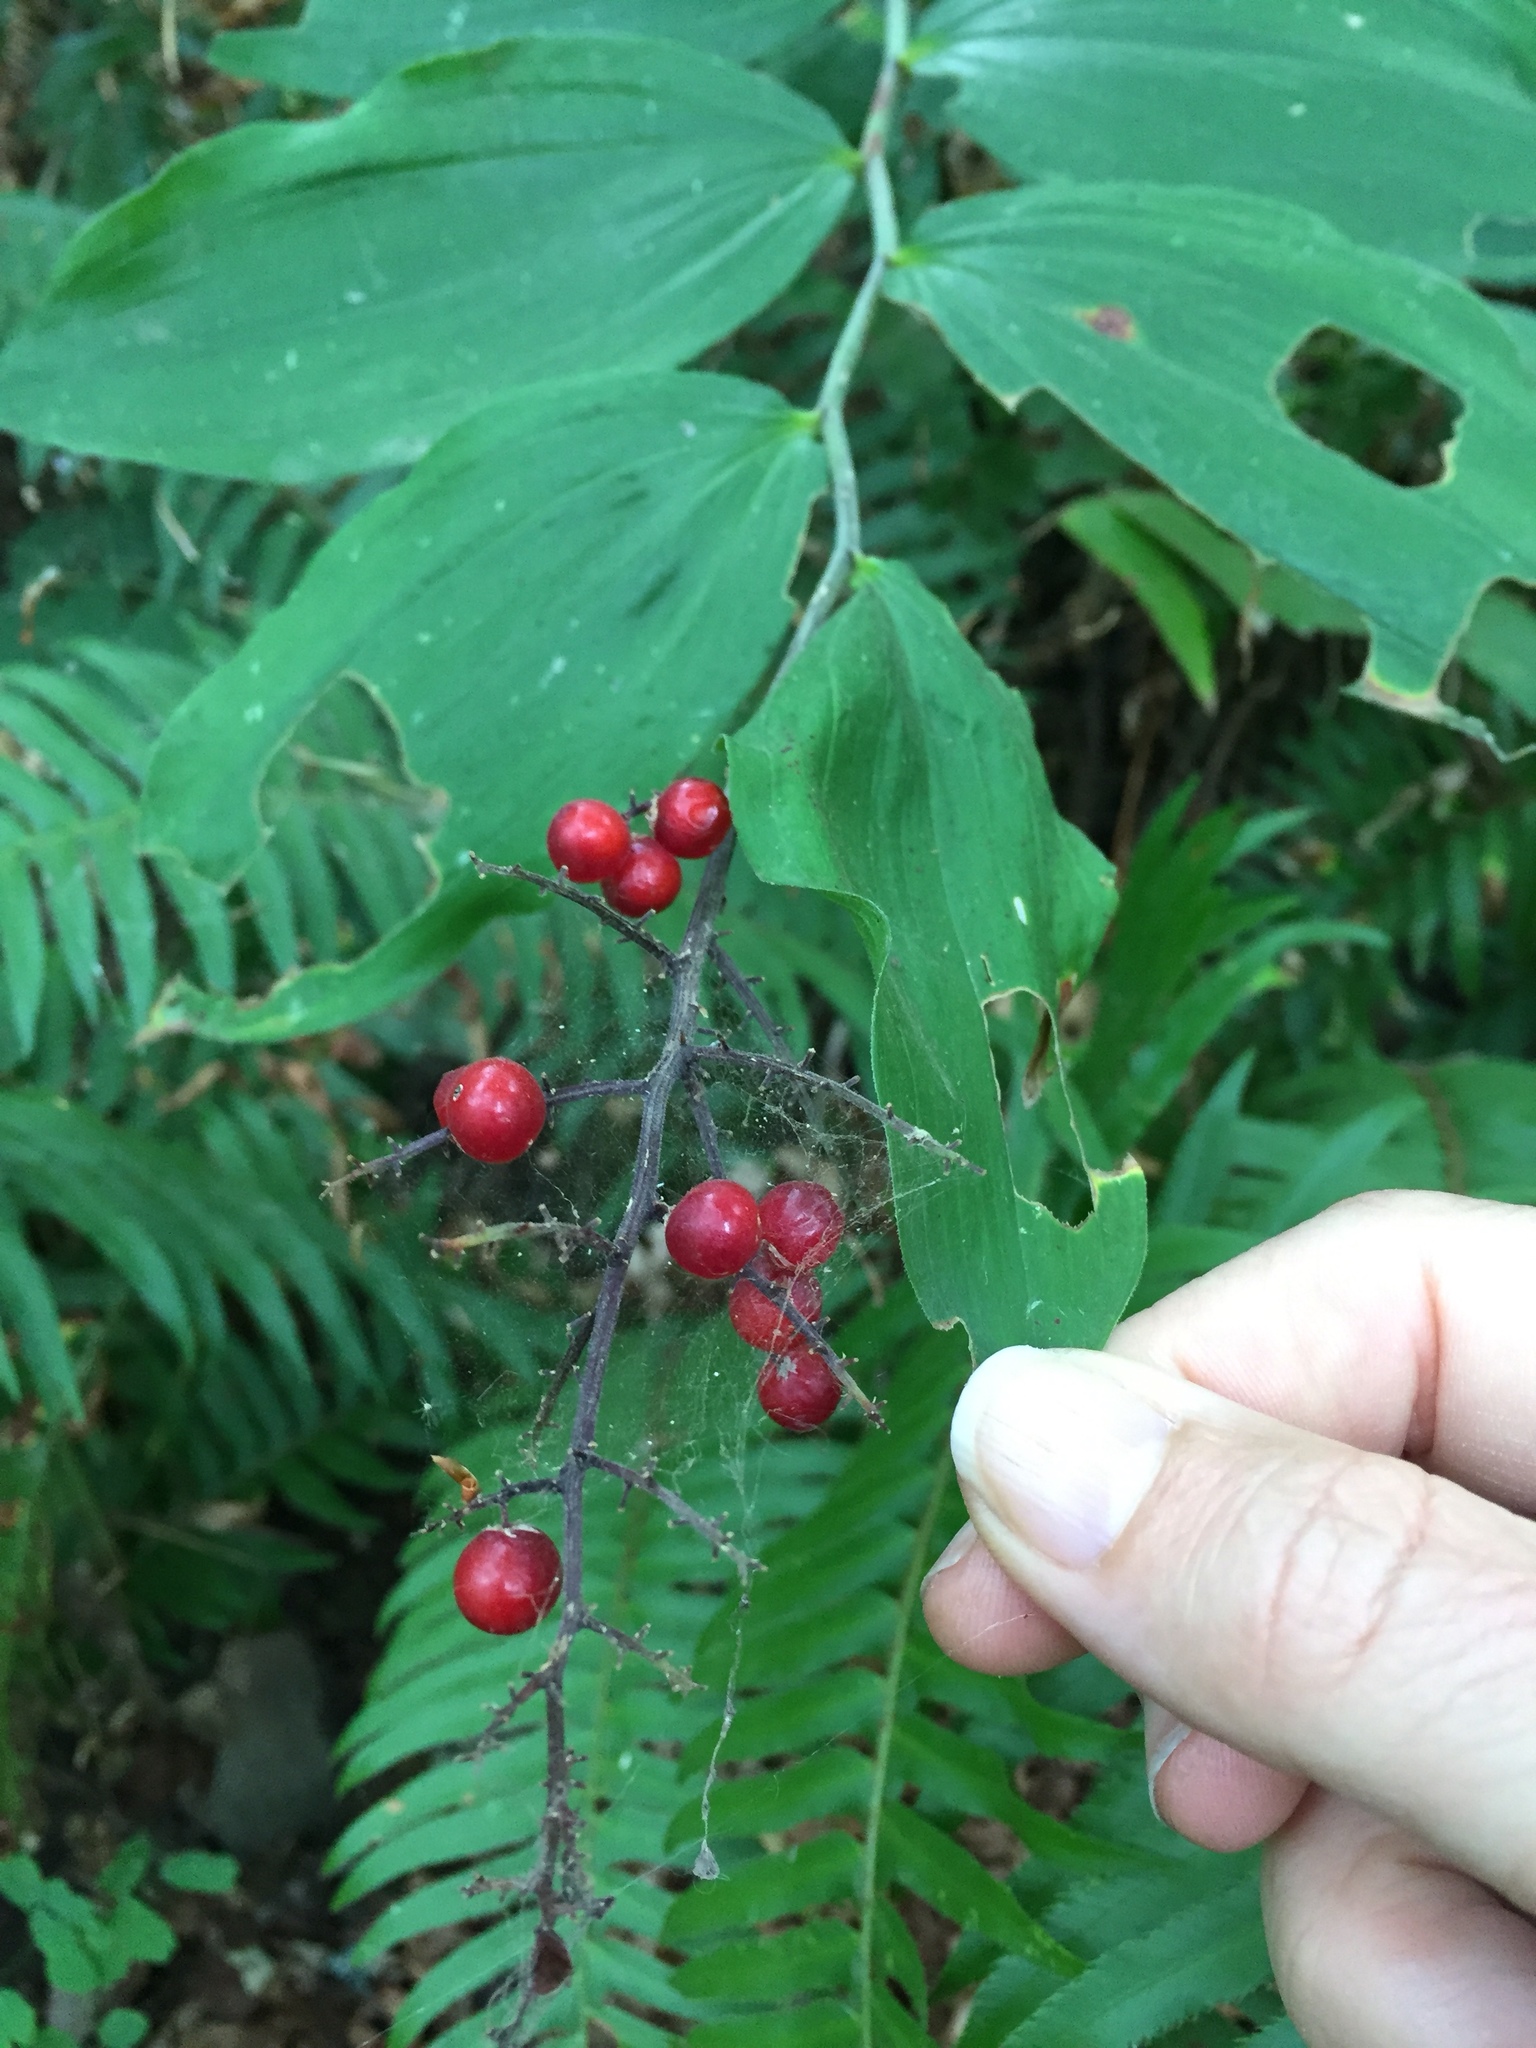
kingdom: Plantae
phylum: Tracheophyta
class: Liliopsida
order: Asparagales
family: Asparagaceae
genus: Maianthemum
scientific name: Maianthemum racemosum
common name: False spikenard
